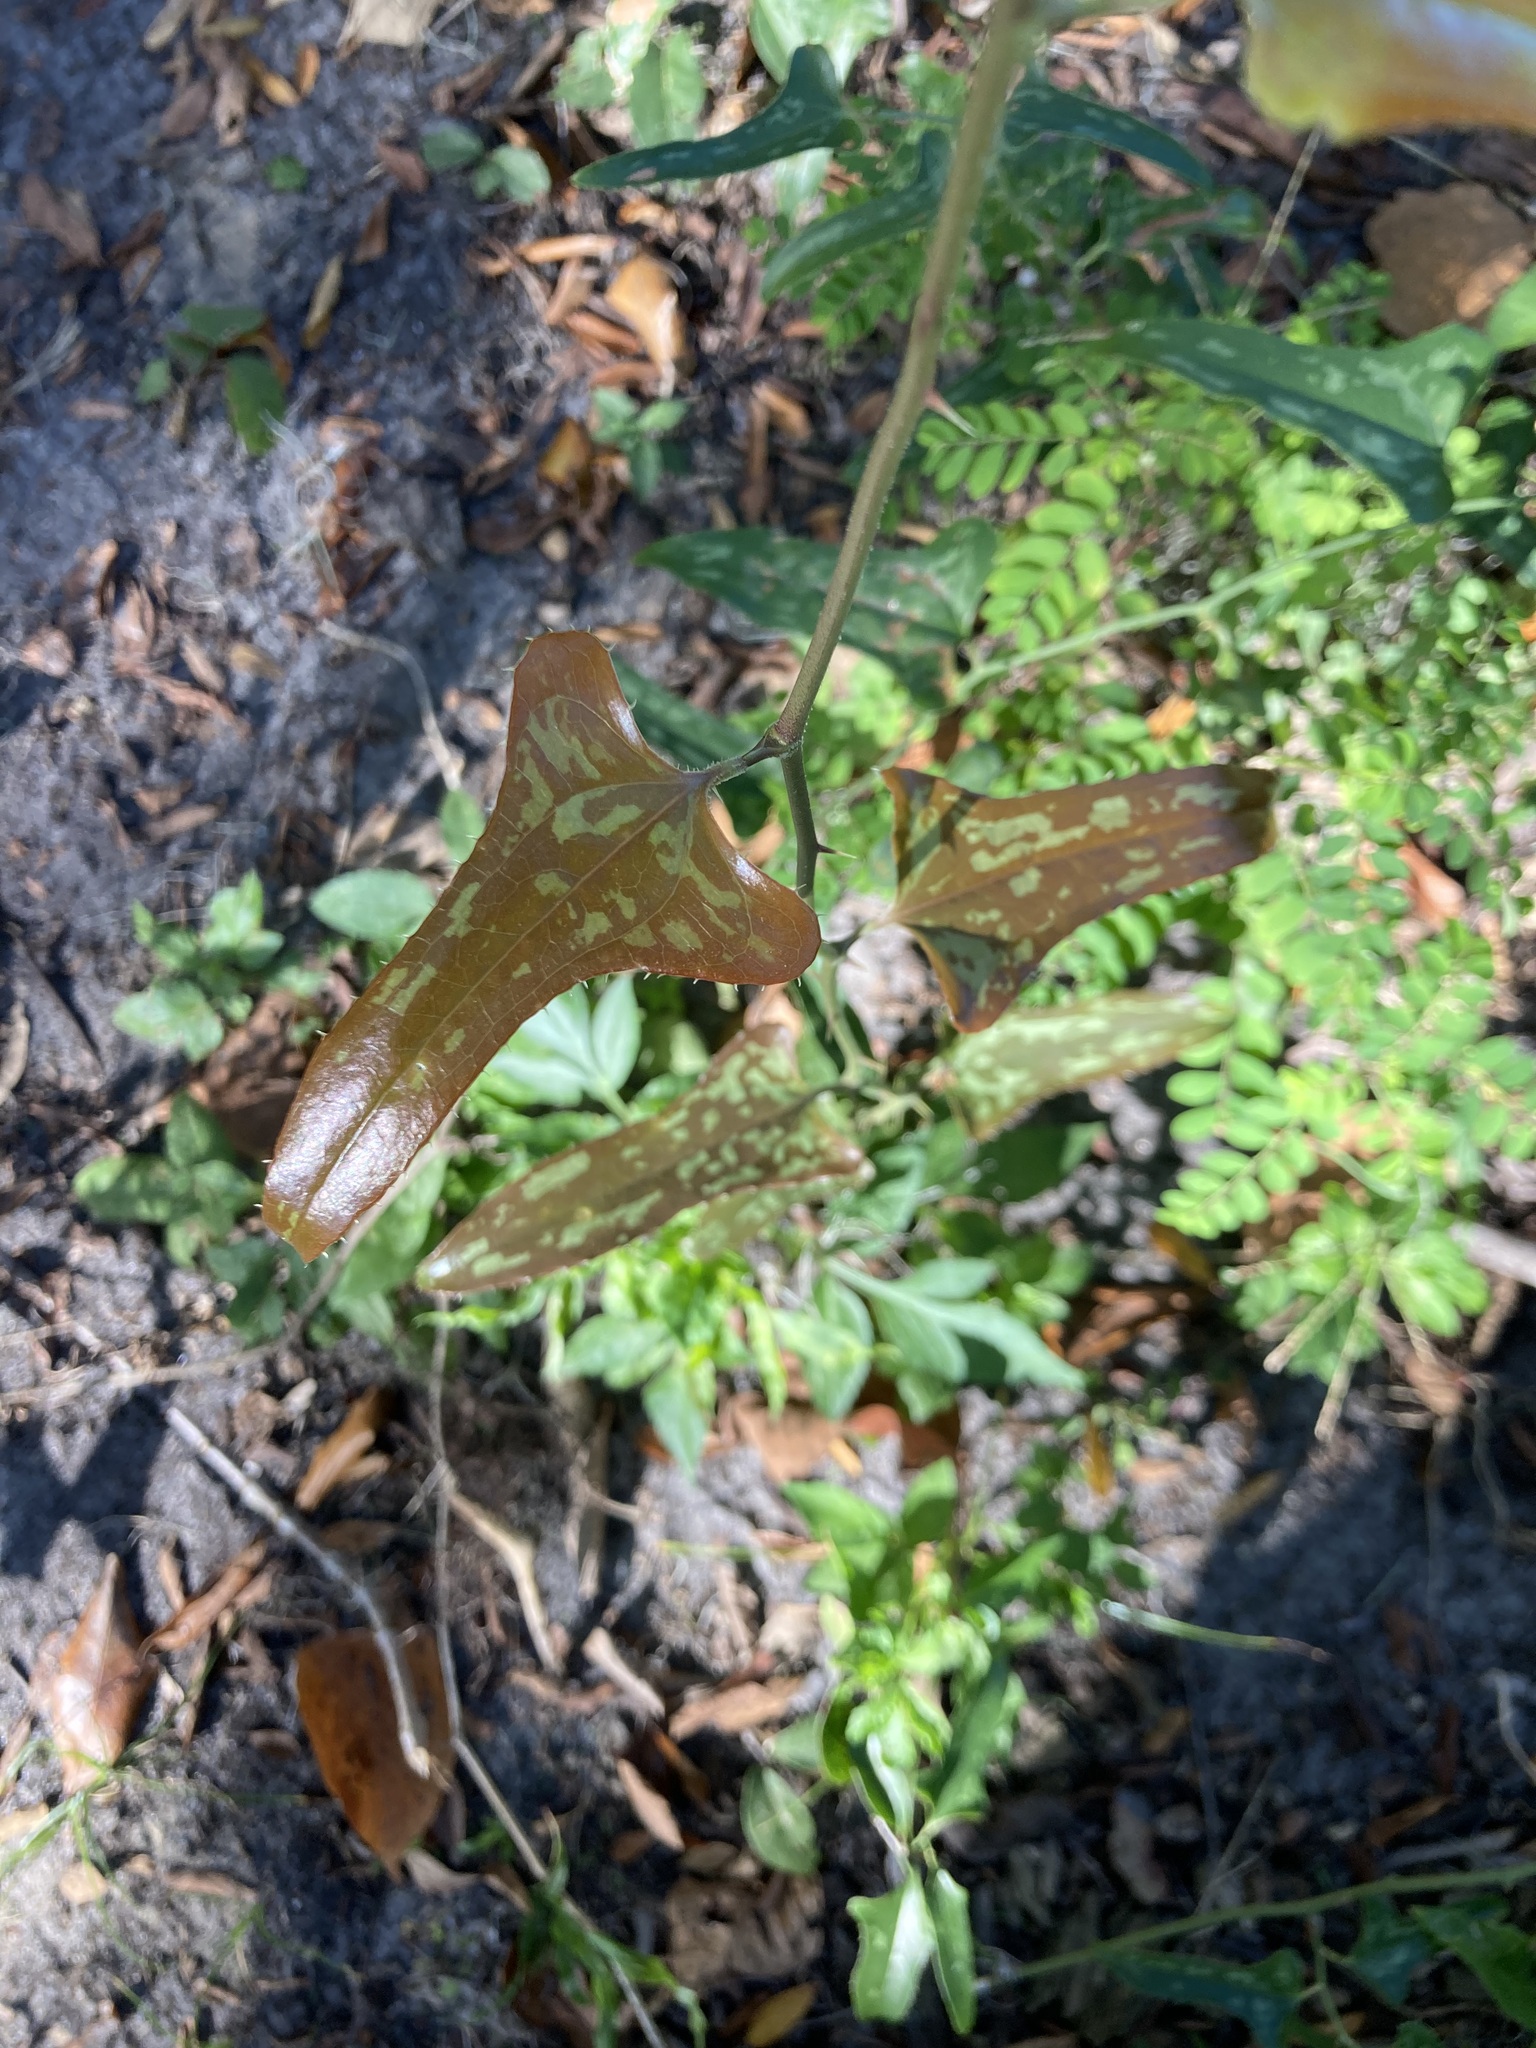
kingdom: Plantae
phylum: Tracheophyta
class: Liliopsida
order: Liliales
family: Smilacaceae
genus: Smilax
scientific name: Smilax bona-nox
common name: Catbrier
